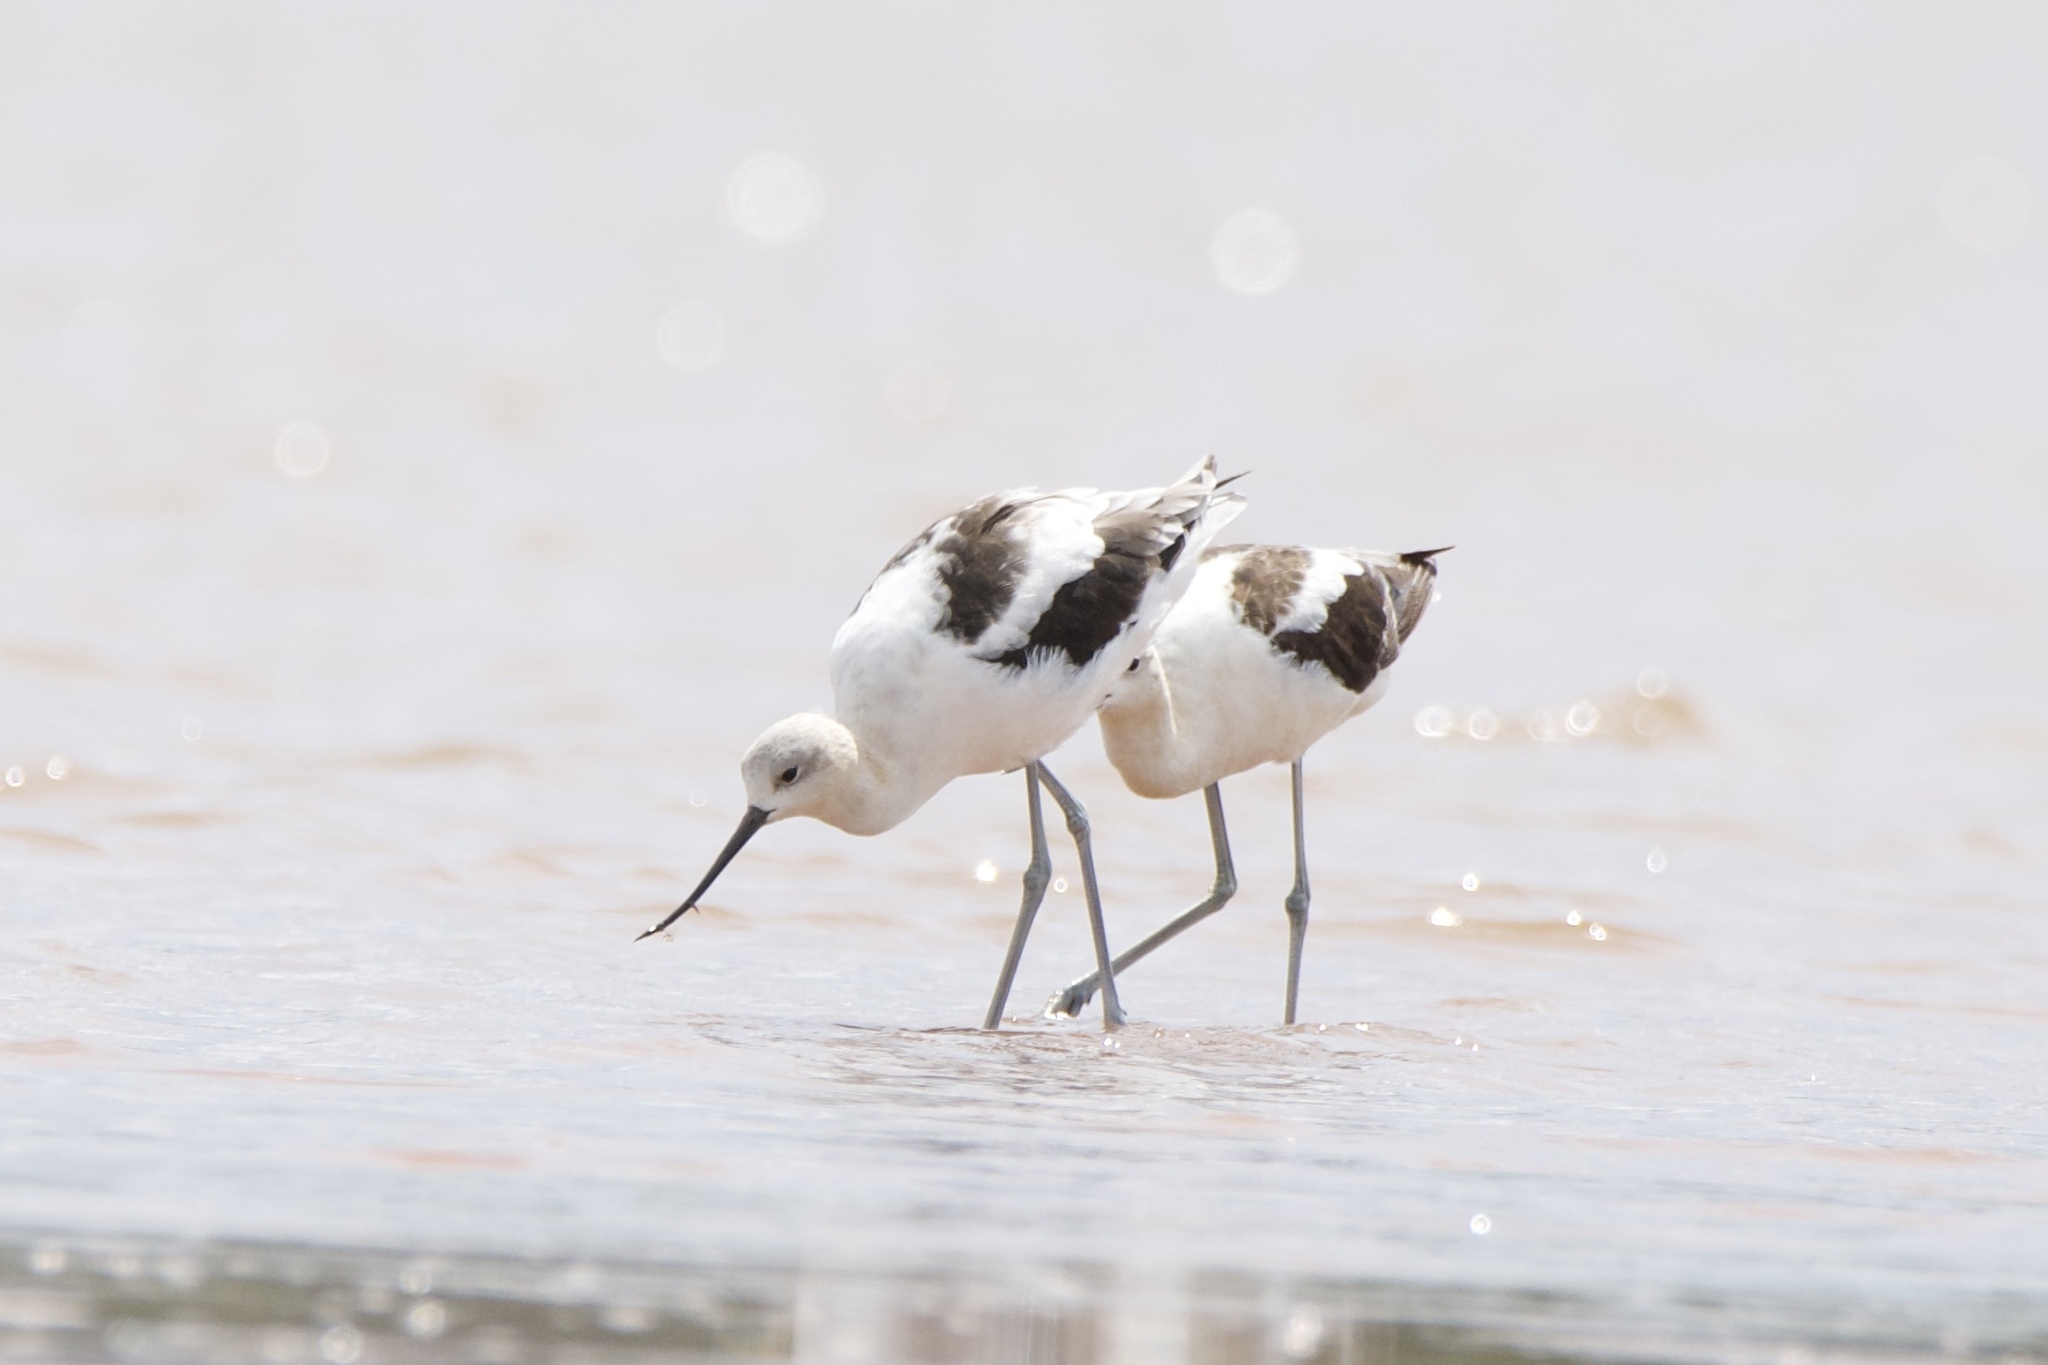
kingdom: Animalia
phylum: Chordata
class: Aves
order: Charadriiformes
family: Recurvirostridae
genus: Recurvirostra
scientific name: Recurvirostra americana
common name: American avocet
